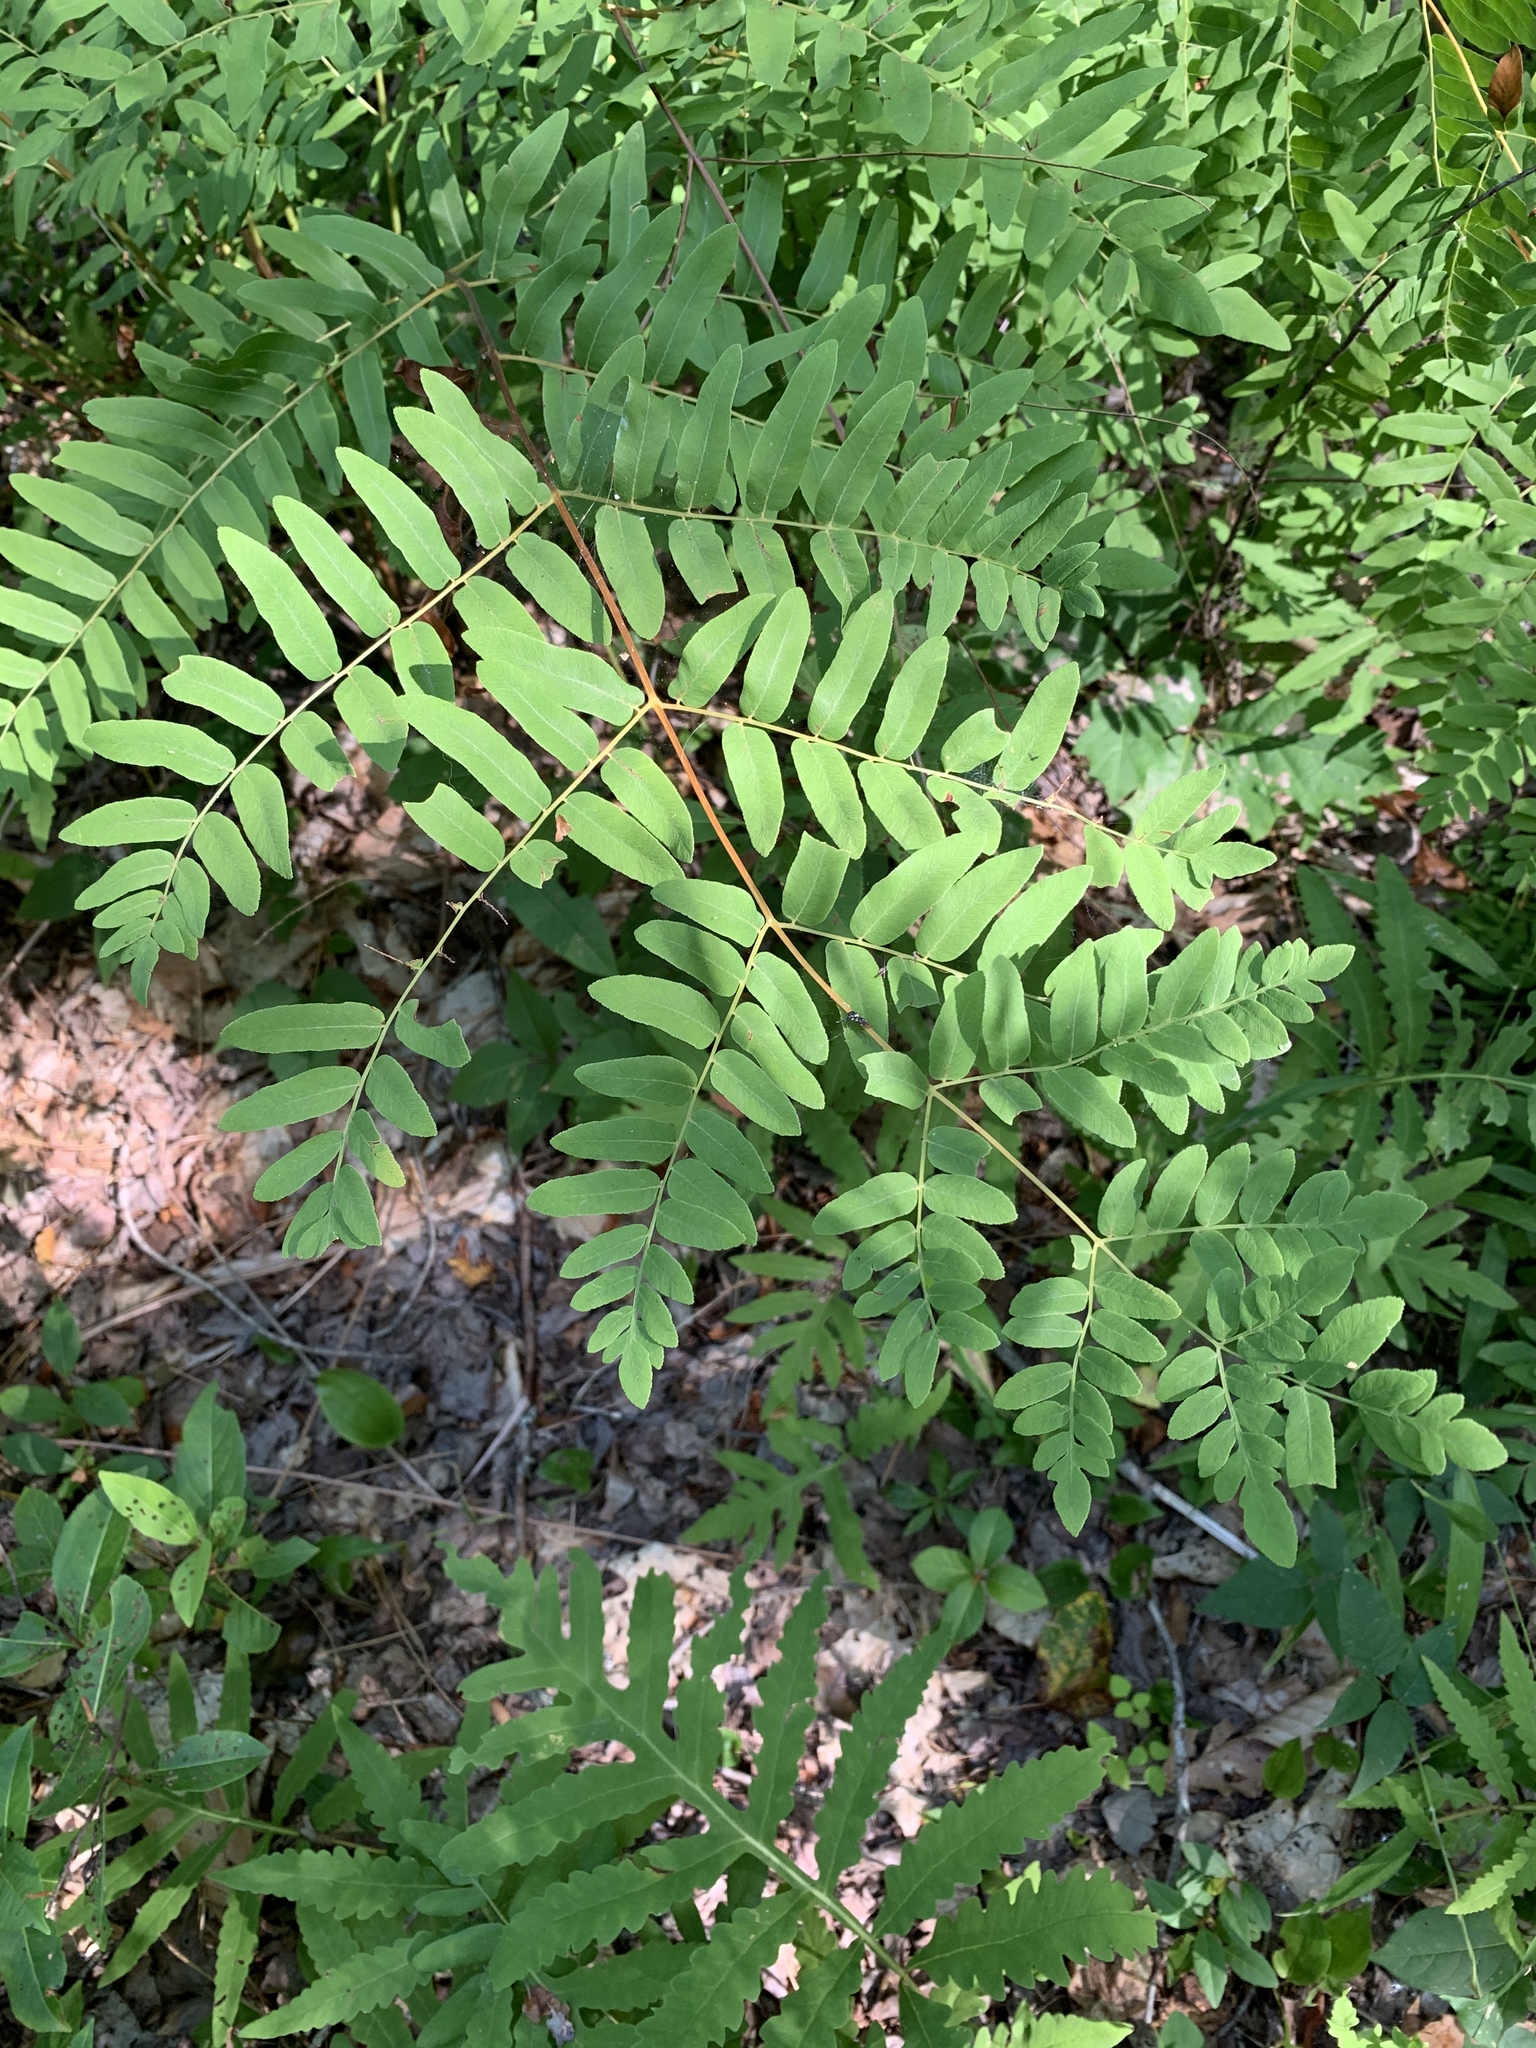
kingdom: Plantae
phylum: Tracheophyta
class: Polypodiopsida
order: Osmundales
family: Osmundaceae
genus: Osmunda
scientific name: Osmunda spectabilis
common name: American royal fern
